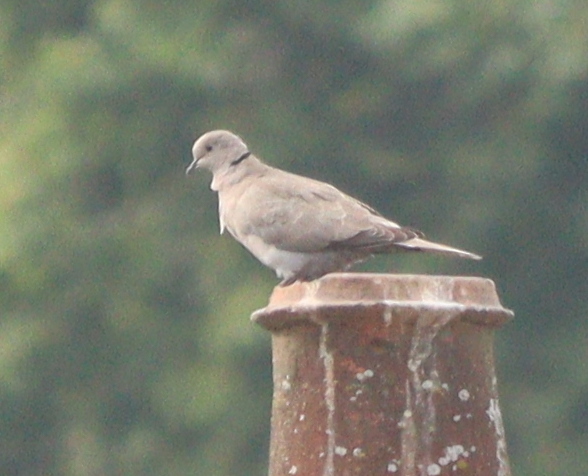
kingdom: Animalia
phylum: Chordata
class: Aves
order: Columbiformes
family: Columbidae
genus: Streptopelia
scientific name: Streptopelia decaocto
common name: Eurasian collared dove
